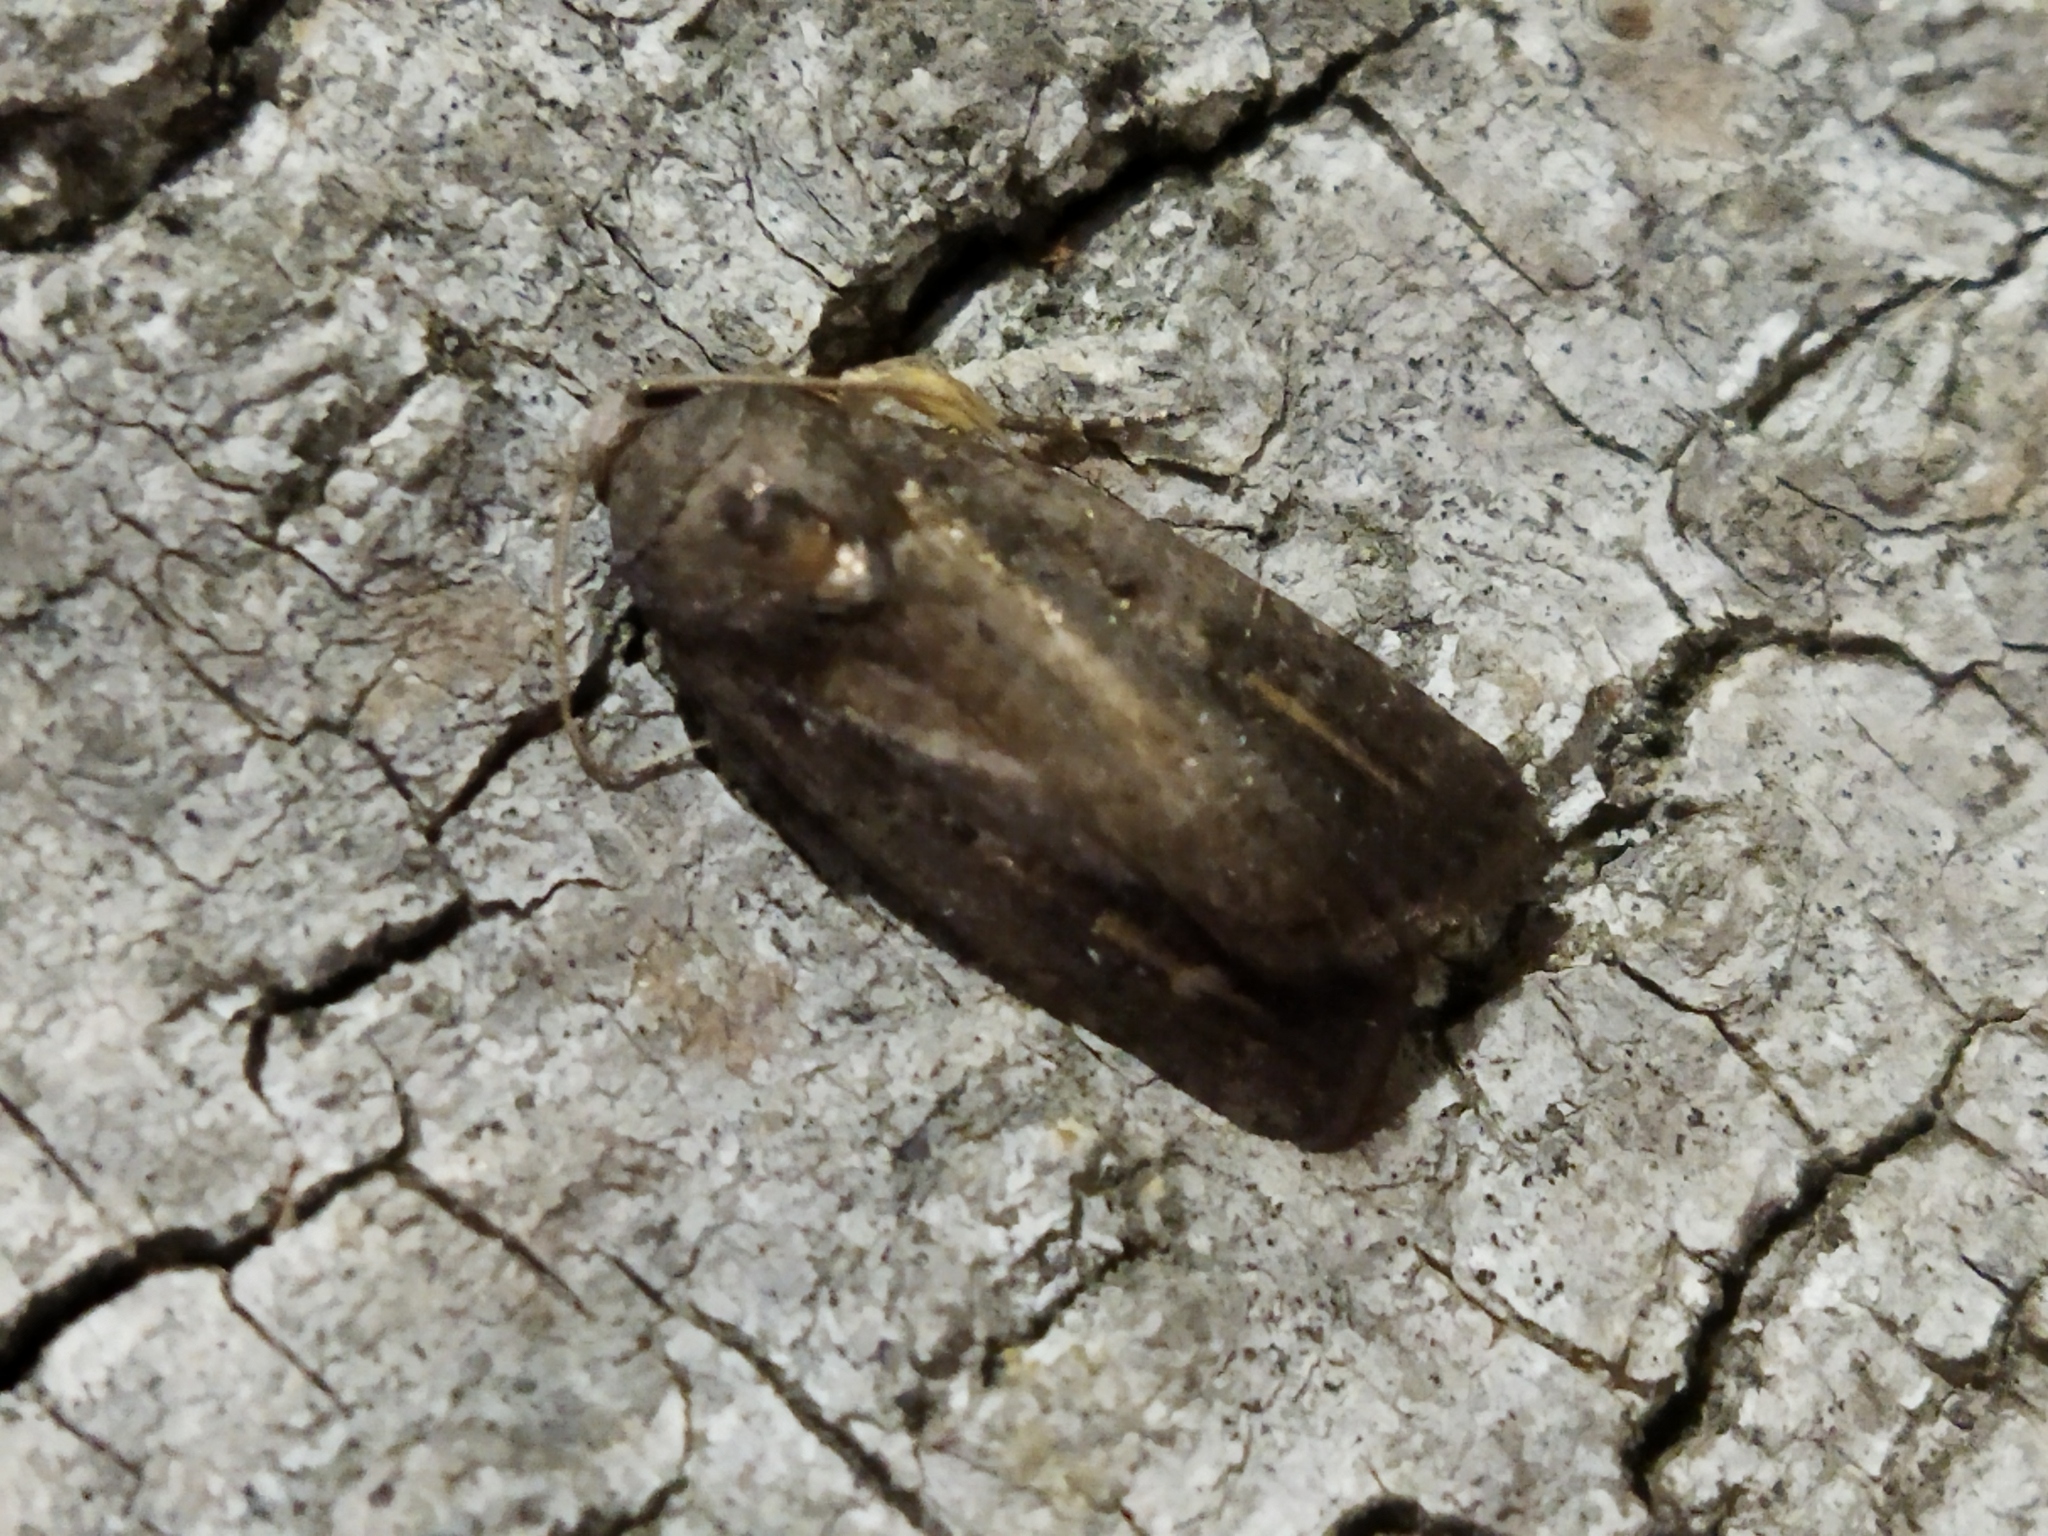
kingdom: Animalia
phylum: Arthropoda
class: Insecta
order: Lepidoptera
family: Noctuidae
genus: Athetis
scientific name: Athetis hospes
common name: Porter's rustic
